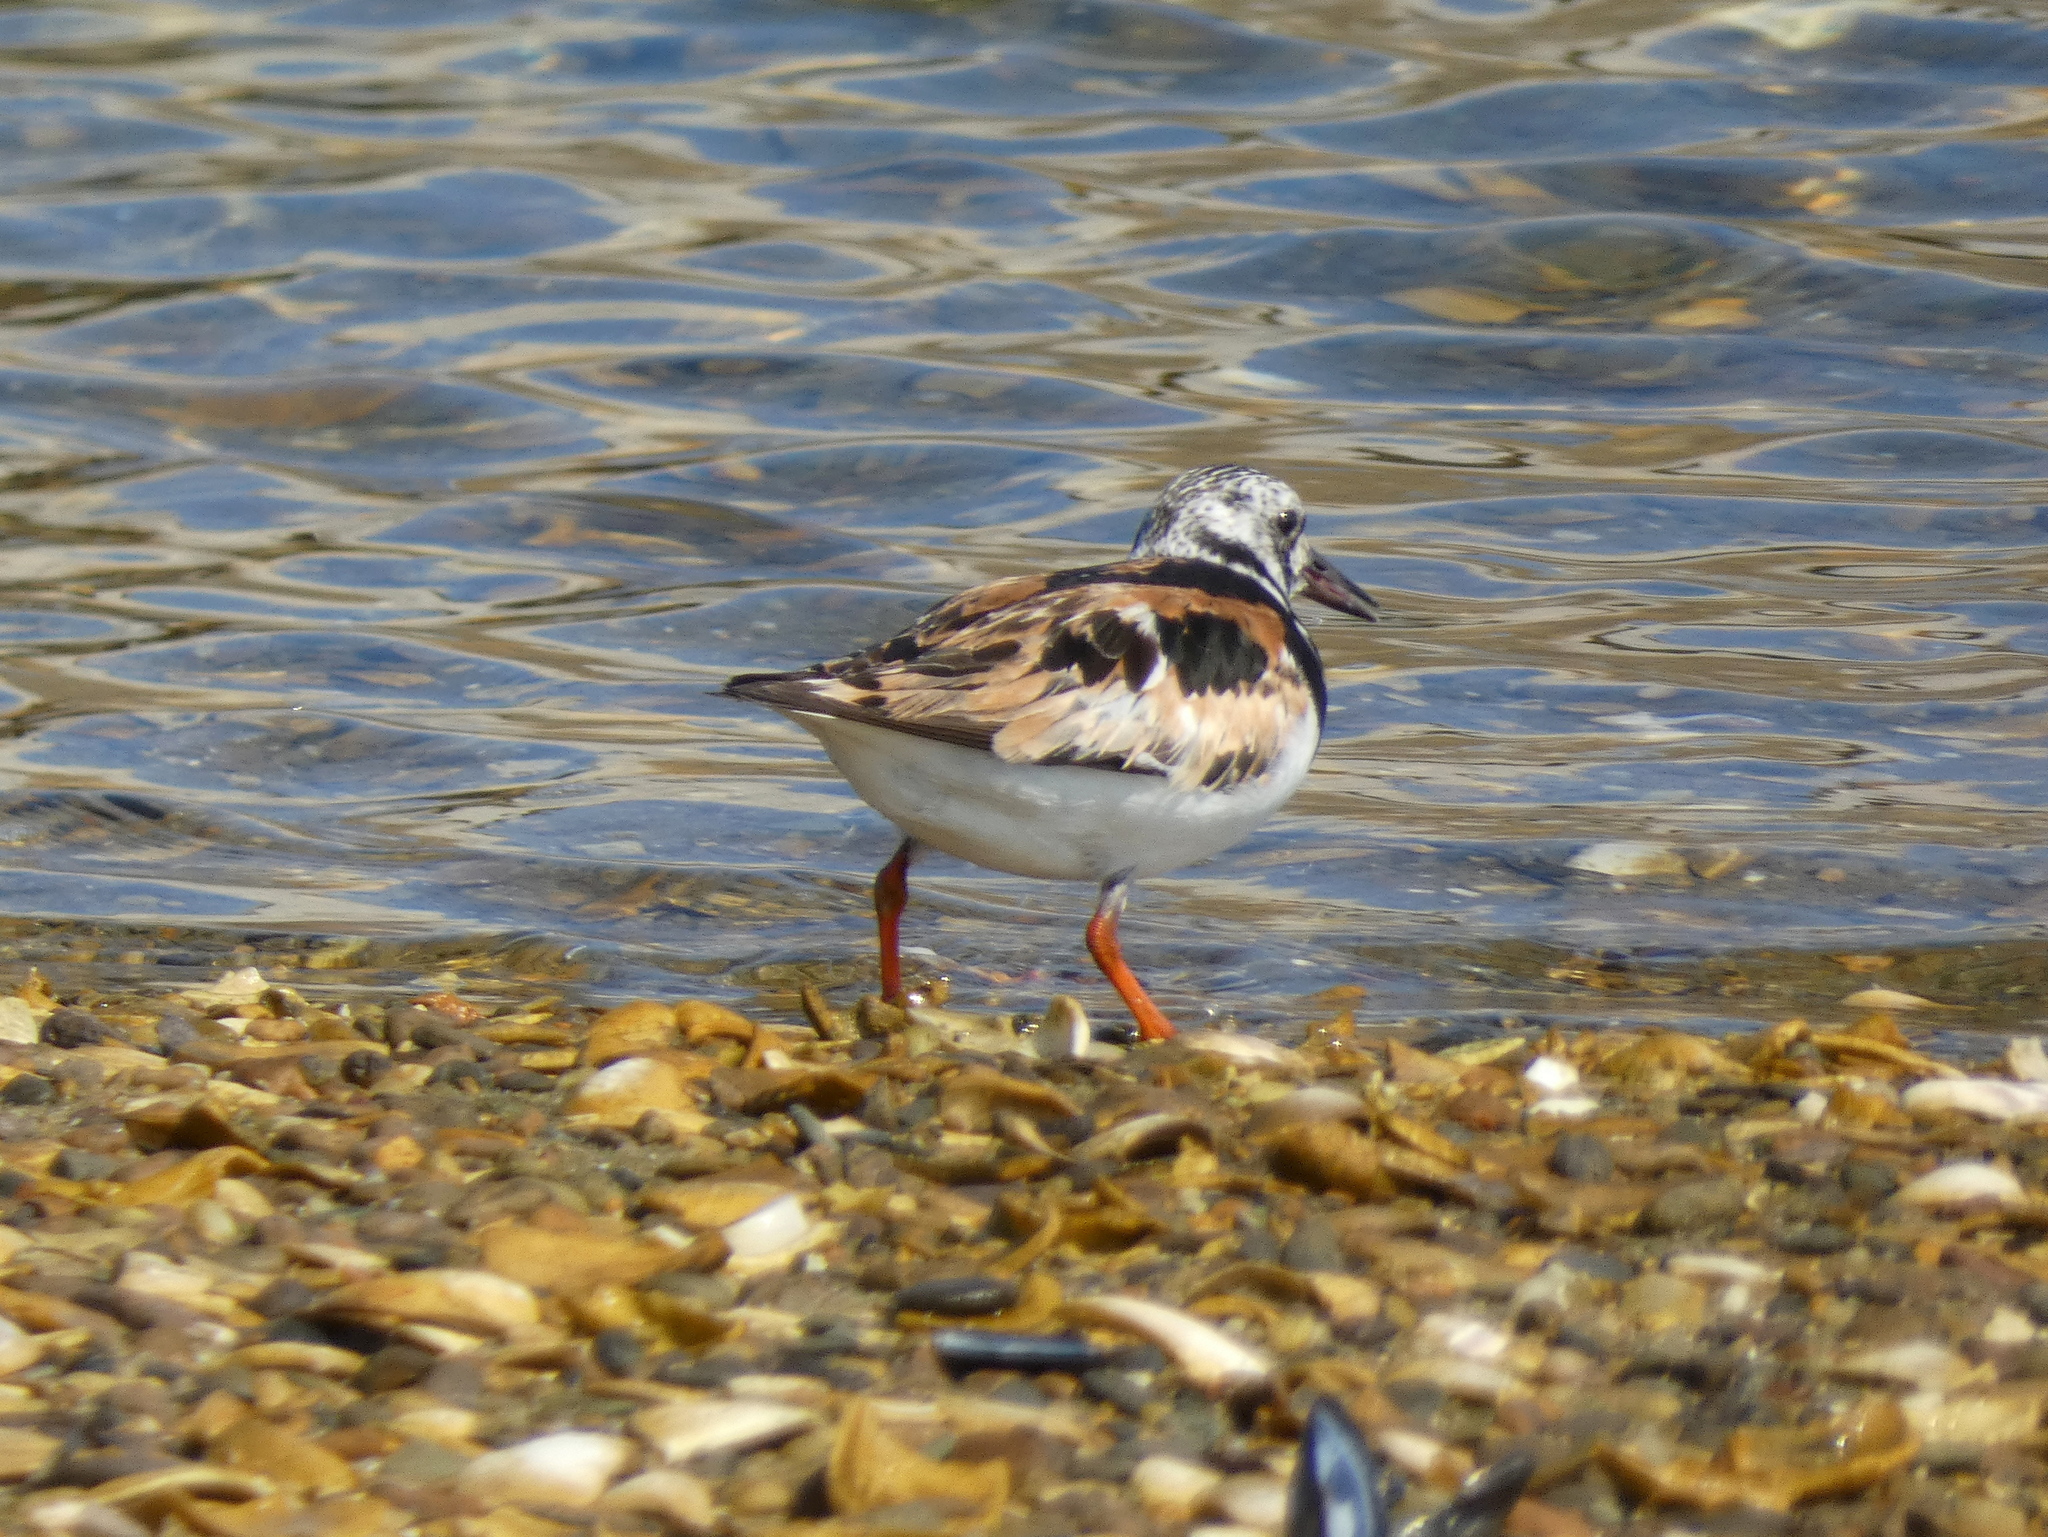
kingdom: Animalia
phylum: Chordata
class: Aves
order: Charadriiformes
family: Scolopacidae
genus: Arenaria
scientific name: Arenaria interpres
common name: Ruddy turnstone
